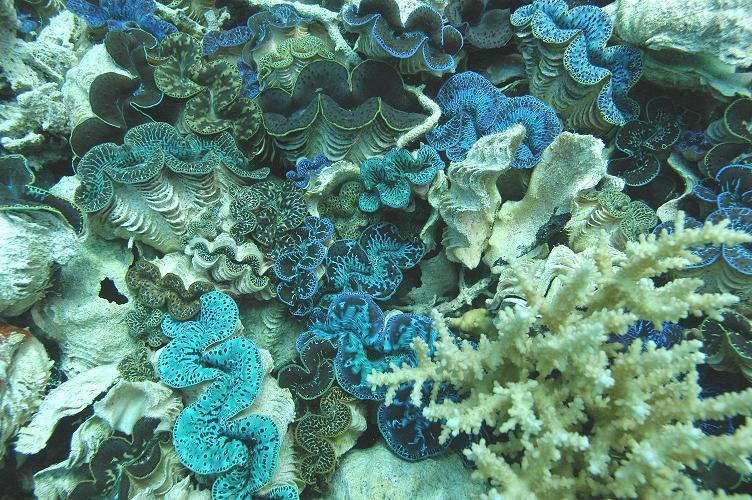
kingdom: Animalia
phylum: Mollusca
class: Bivalvia
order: Cardiida
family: Cardiidae
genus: Tridacna
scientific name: Tridacna maxima
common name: Small giant clam
